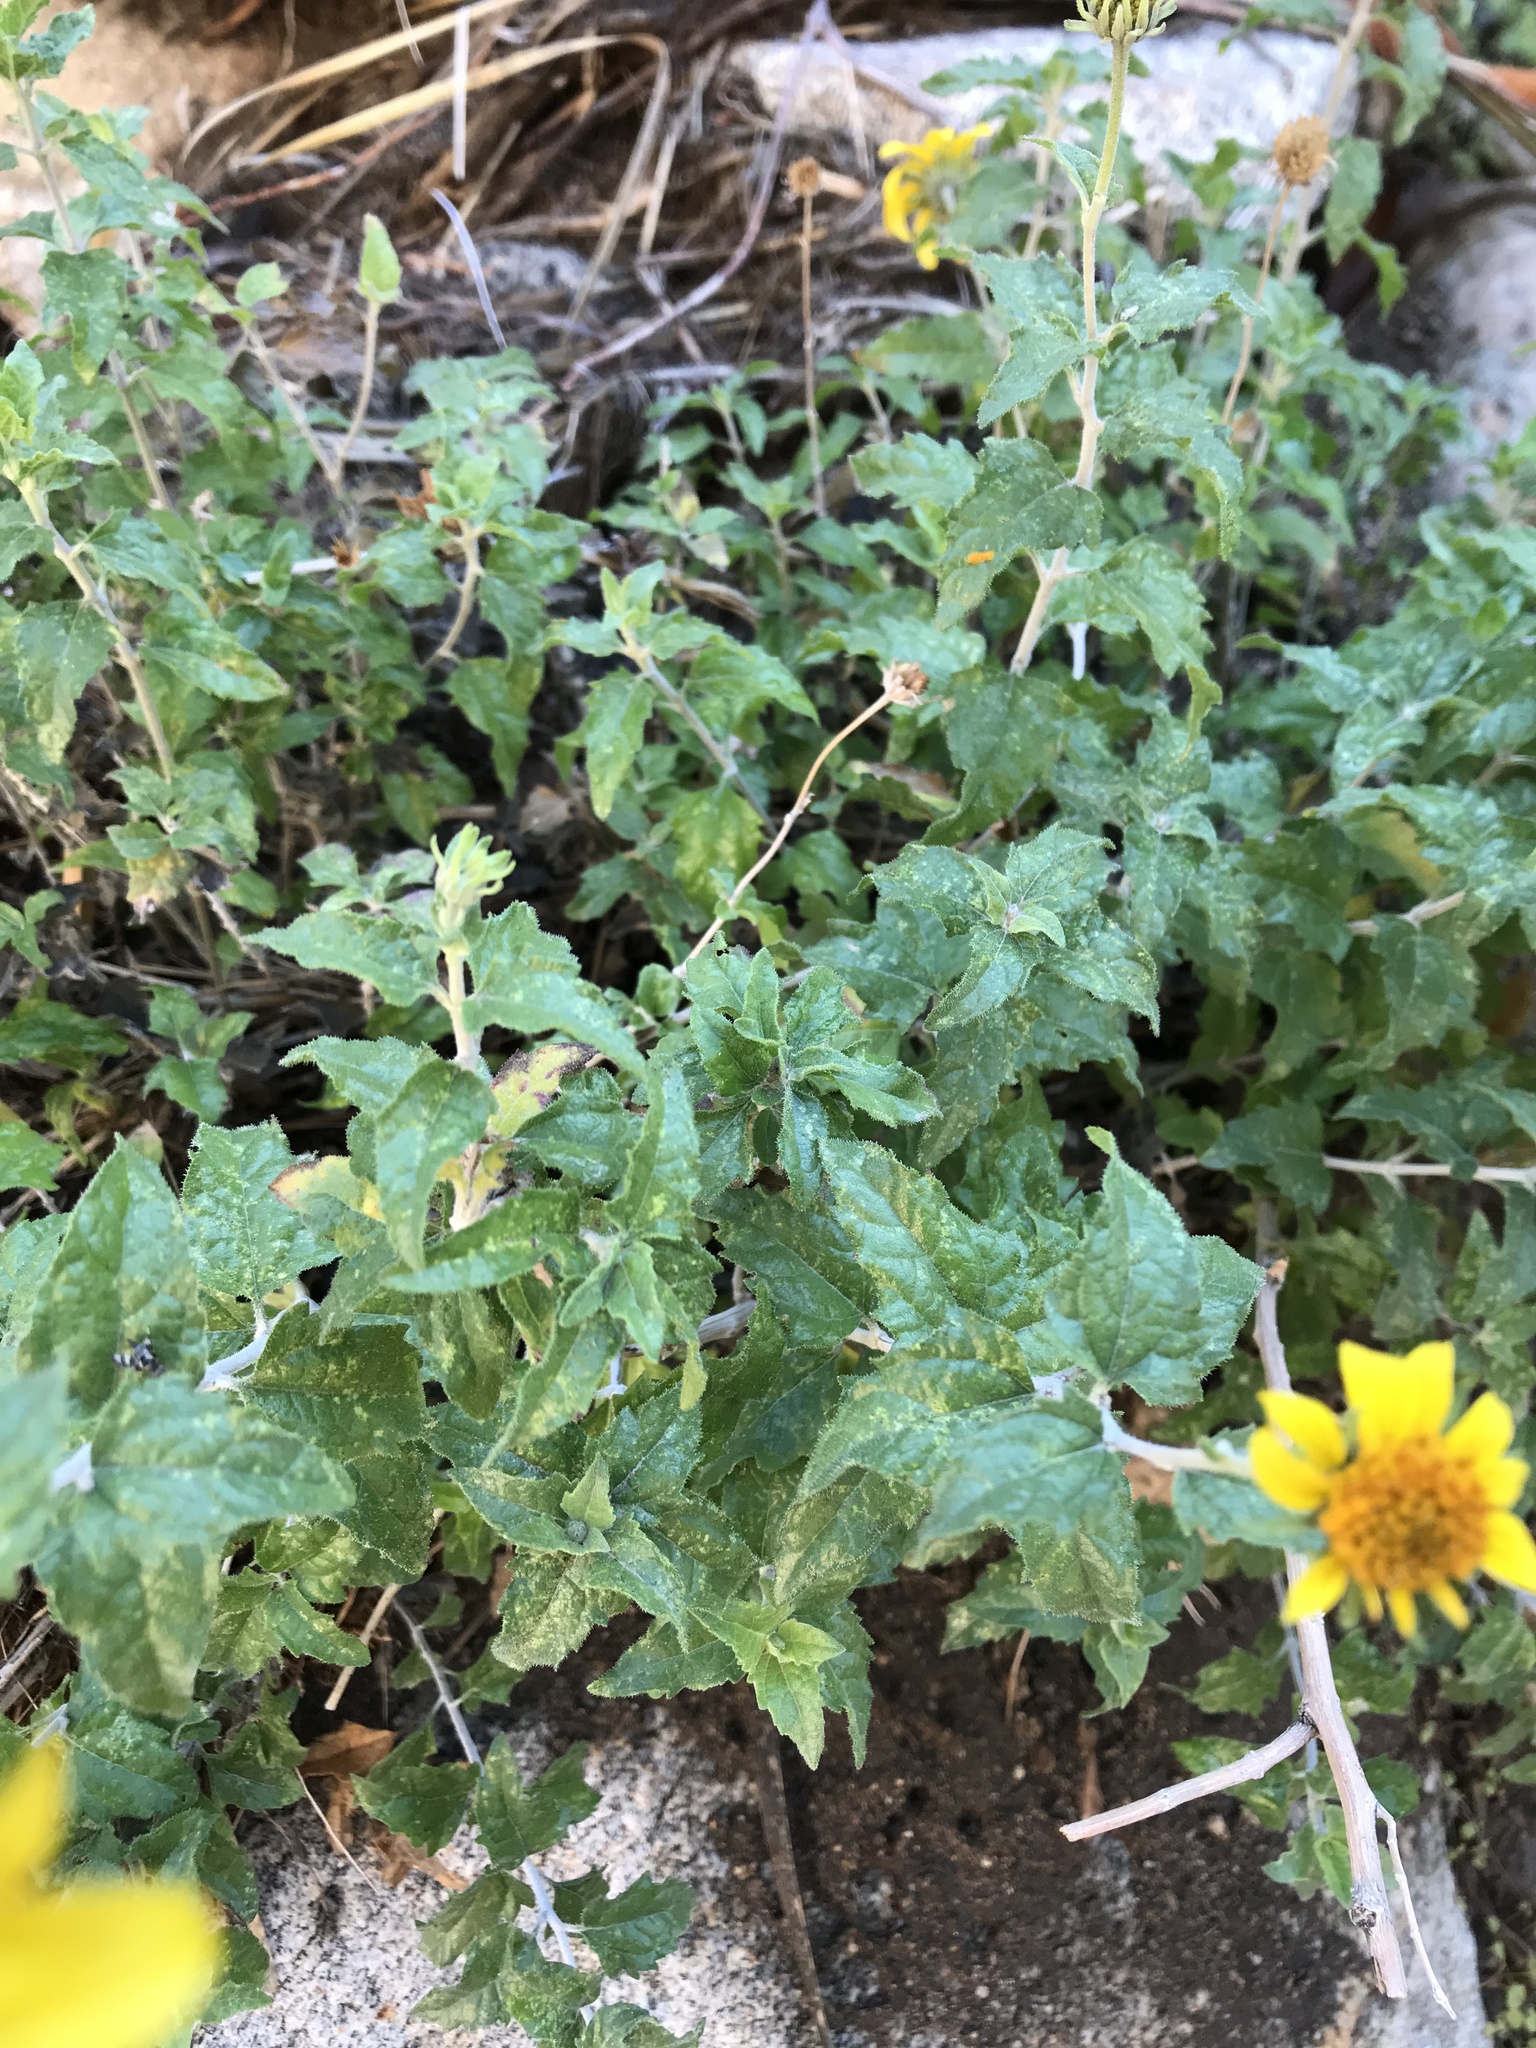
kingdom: Plantae
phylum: Tracheophyta
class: Magnoliopsida
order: Asterales
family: Asteraceae
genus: Bahiopsis
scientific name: Bahiopsis parishii
